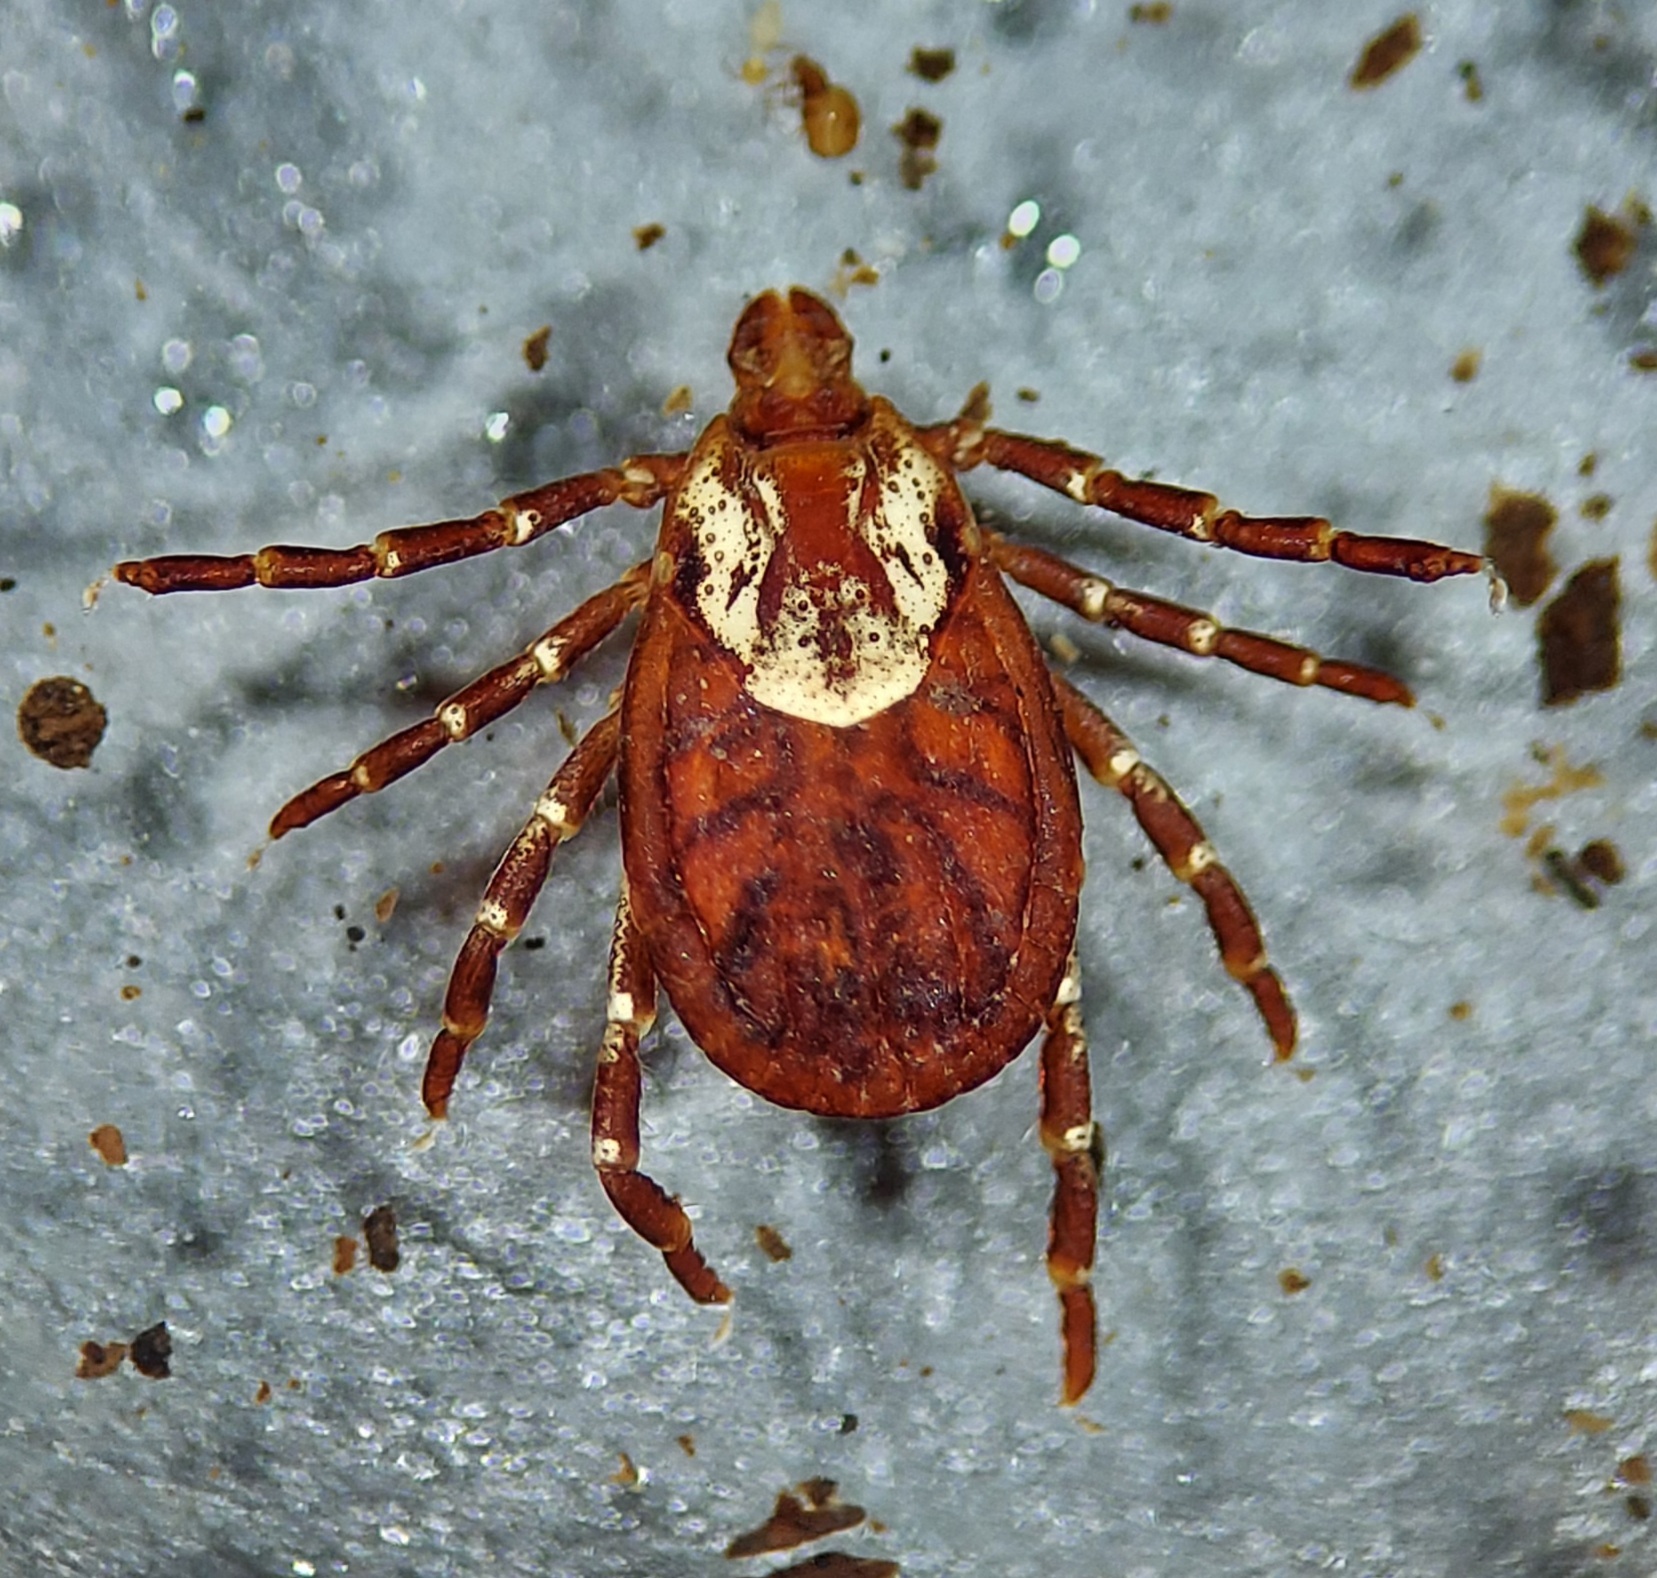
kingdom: Animalia
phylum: Arthropoda
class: Arachnida
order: Ixodida
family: Ixodidae
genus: Dermacentor
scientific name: Dermacentor variabilis
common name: American dog tick
